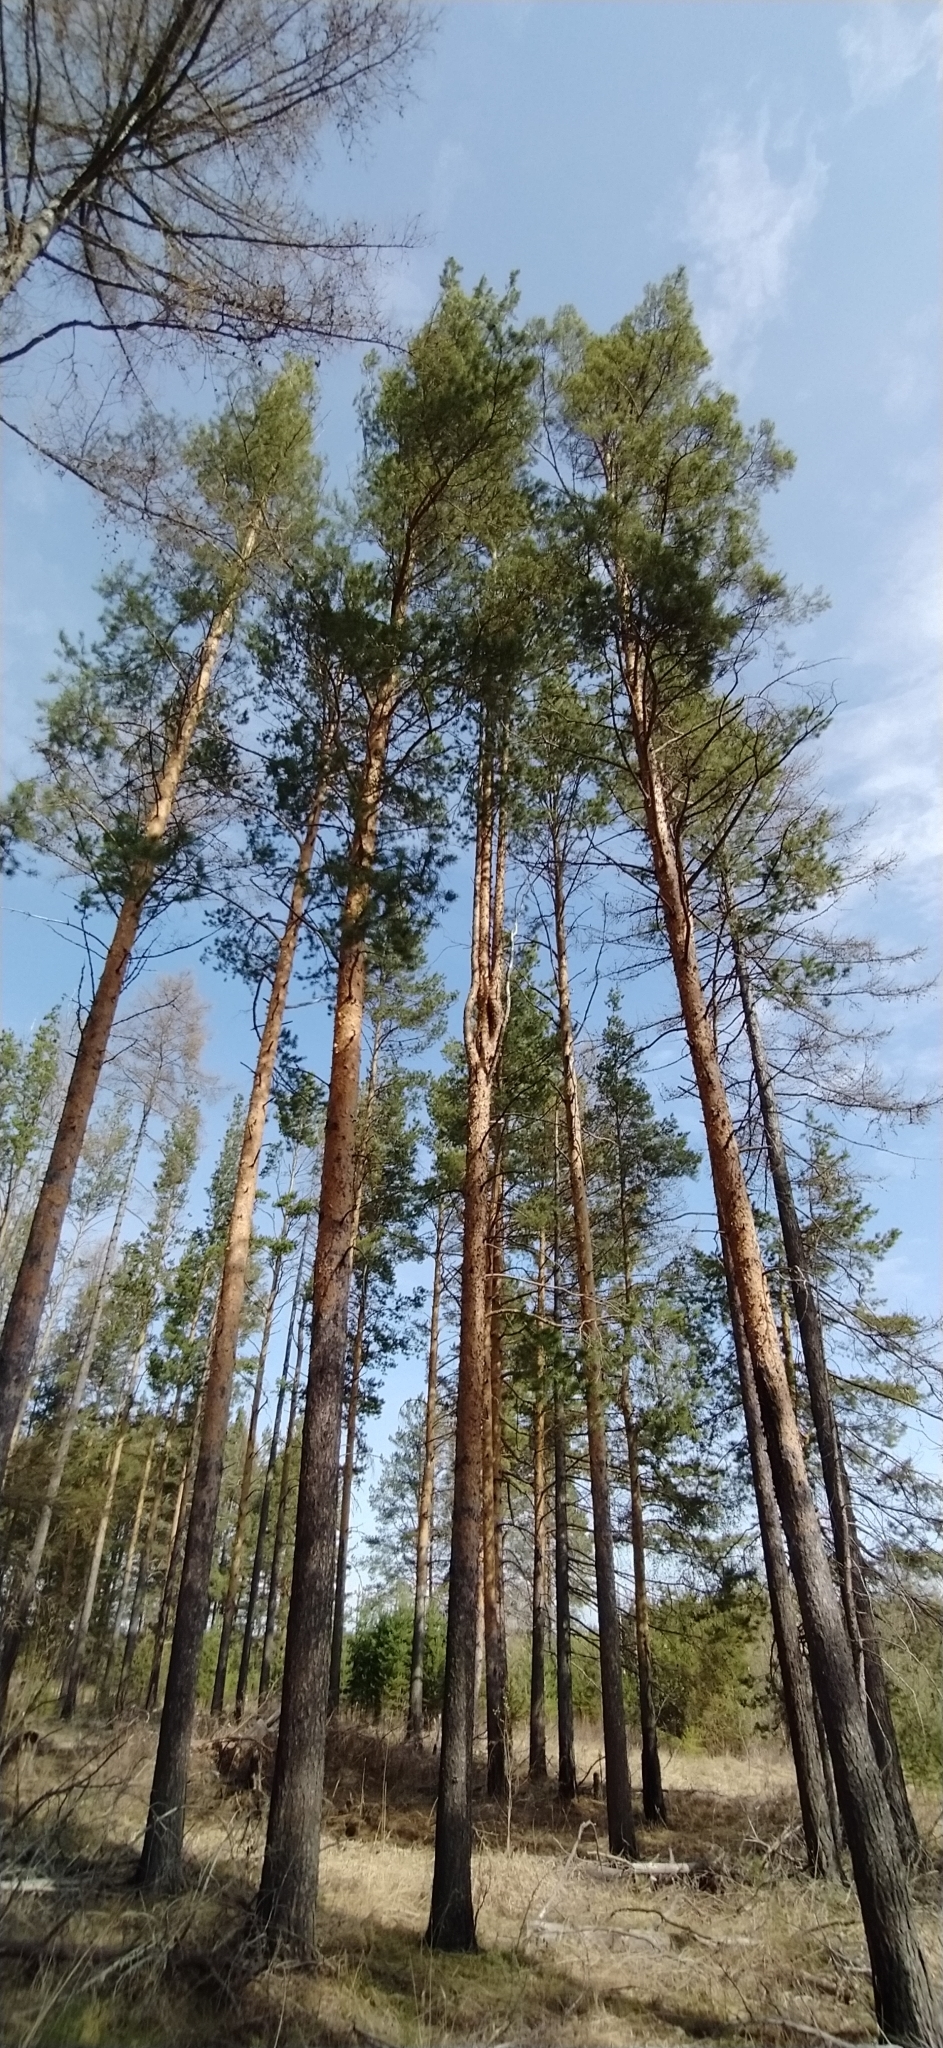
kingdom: Plantae
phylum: Tracheophyta
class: Pinopsida
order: Pinales
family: Pinaceae
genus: Pinus
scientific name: Pinus sylvestris
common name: Scots pine
